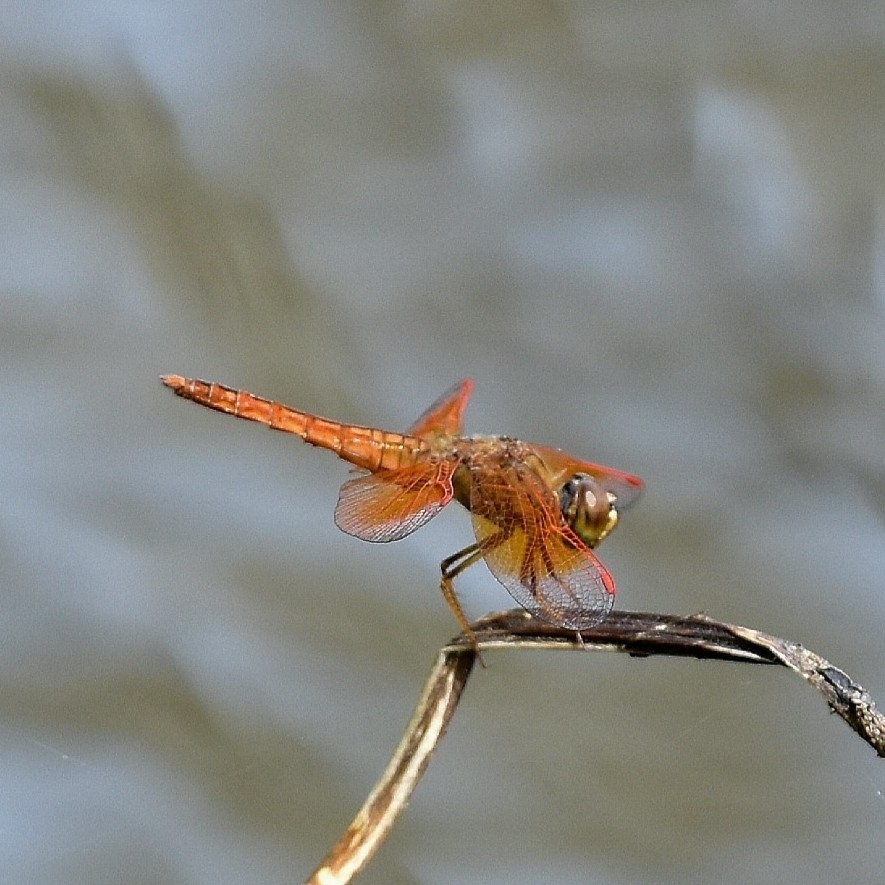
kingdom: Animalia
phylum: Arthropoda
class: Insecta
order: Odonata
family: Libellulidae
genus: Brachythemis
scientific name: Brachythemis contaminata
